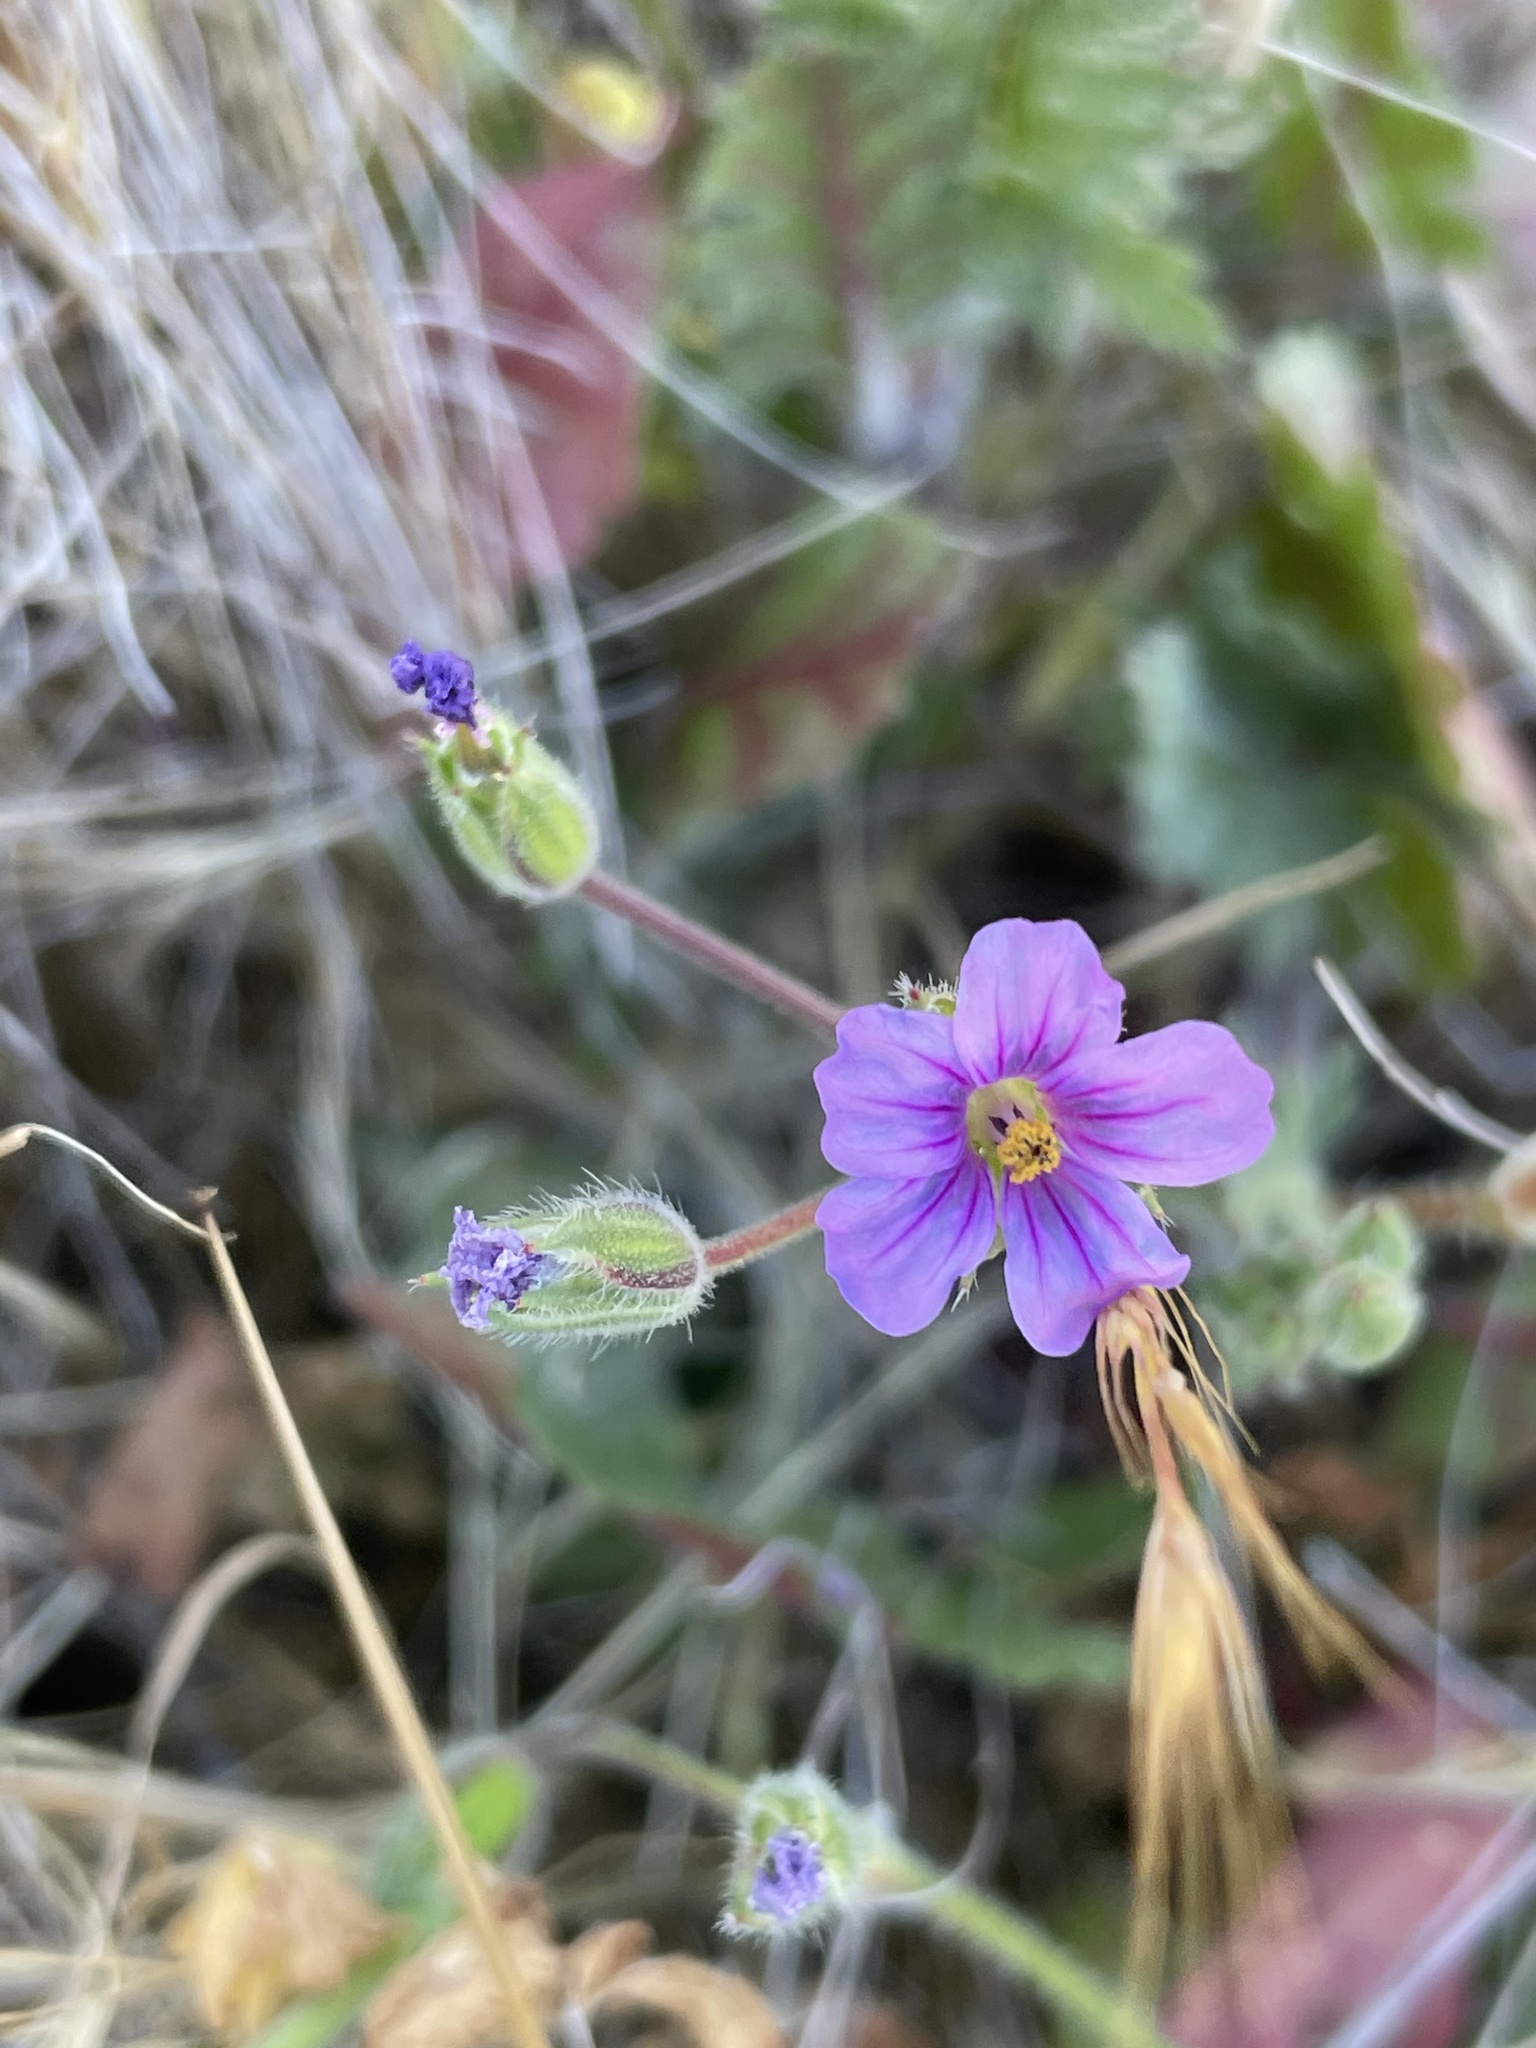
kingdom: Plantae
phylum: Tracheophyta
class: Magnoliopsida
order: Geraniales
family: Geraniaceae
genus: Erodium
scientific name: Erodium botrys
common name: Mediterranean stork's-bill
